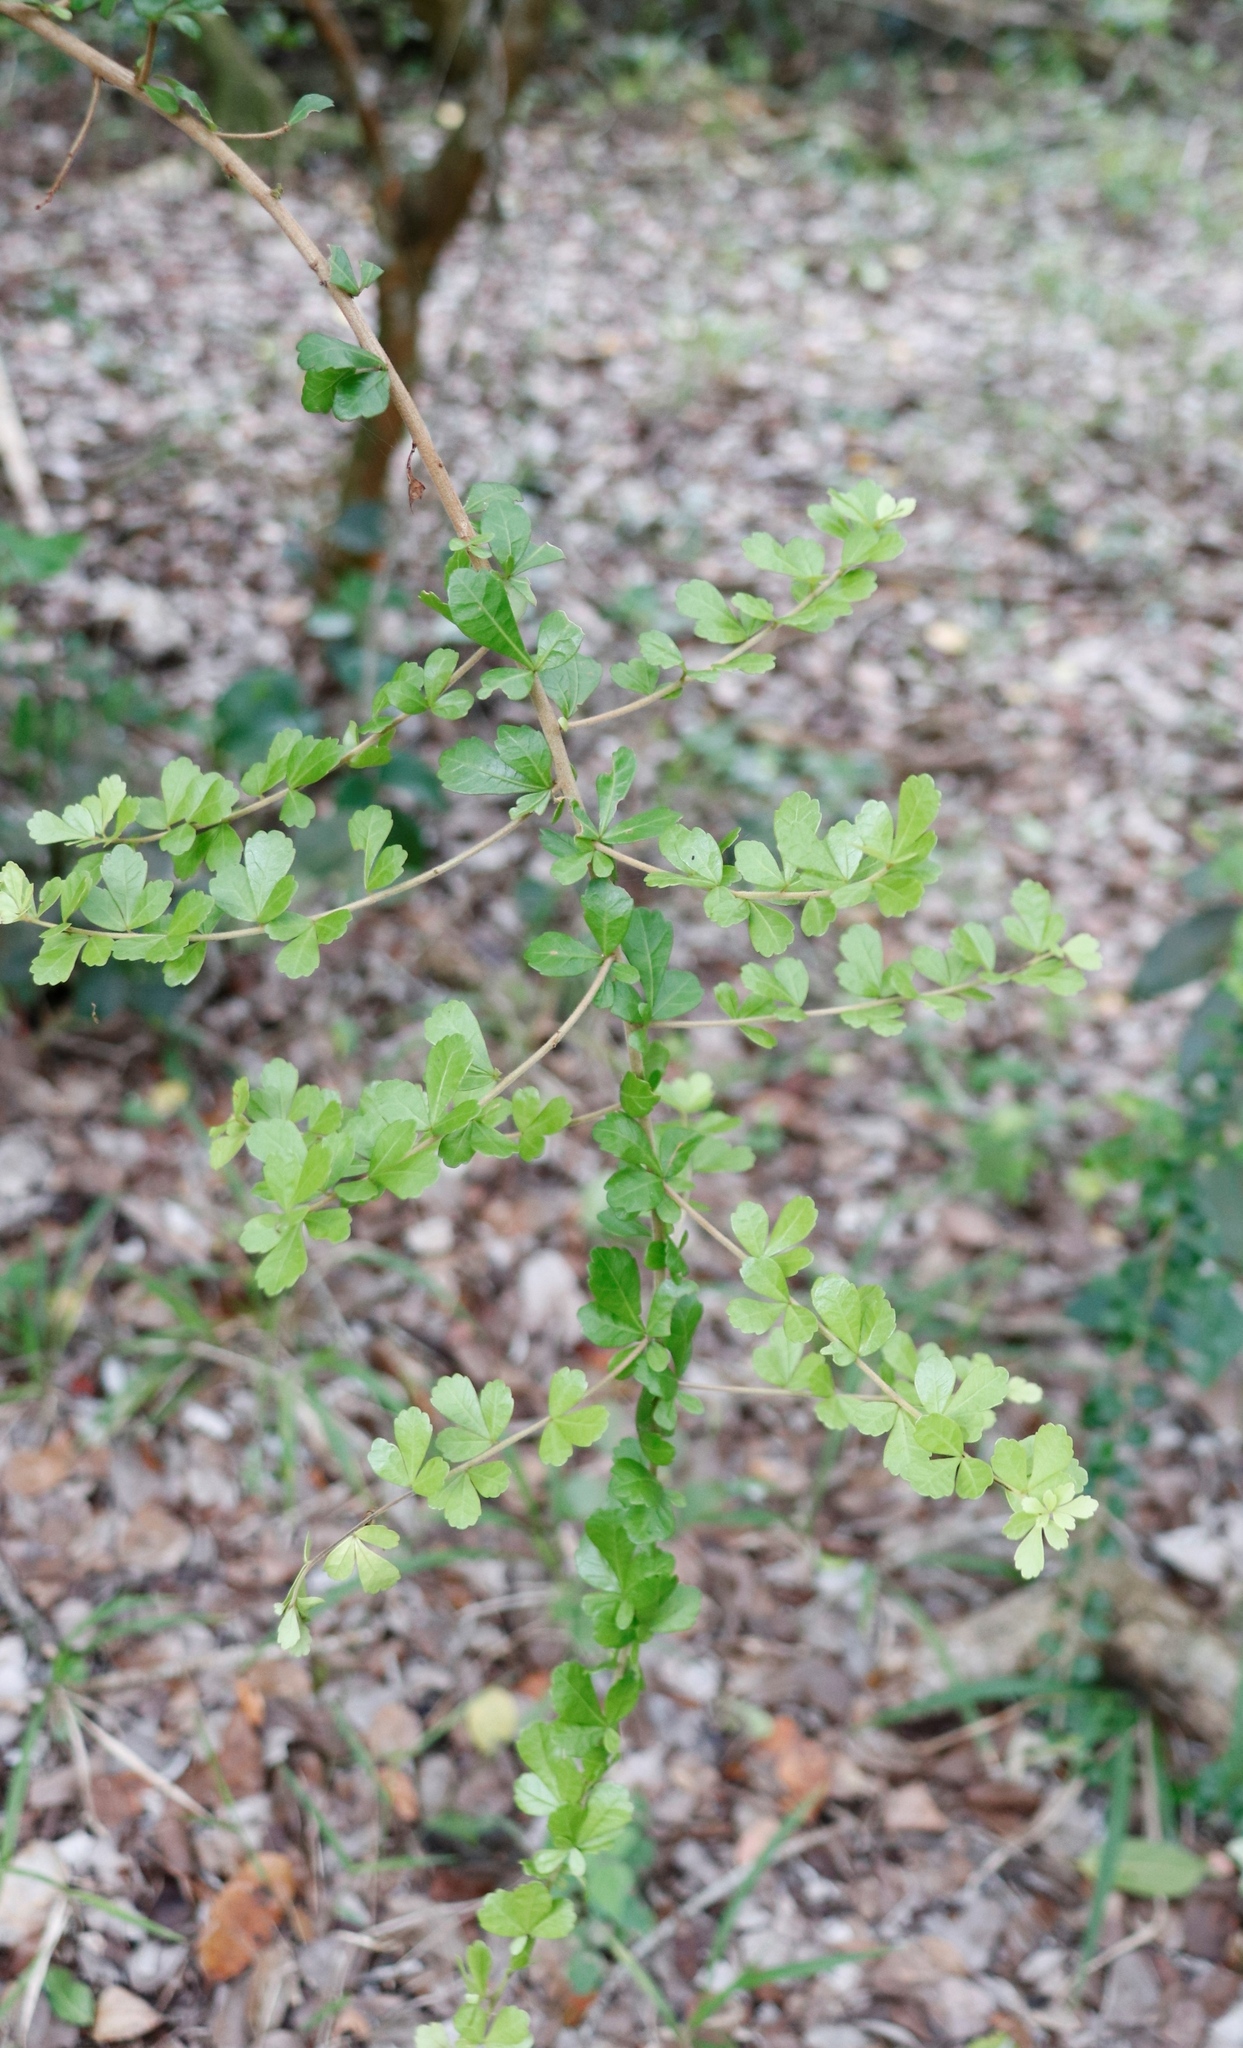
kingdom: Plantae
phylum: Tracheophyta
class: Magnoliopsida
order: Sapindales
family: Anacardiaceae
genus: Searsia
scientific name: Searsia crenata
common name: Crowberry
